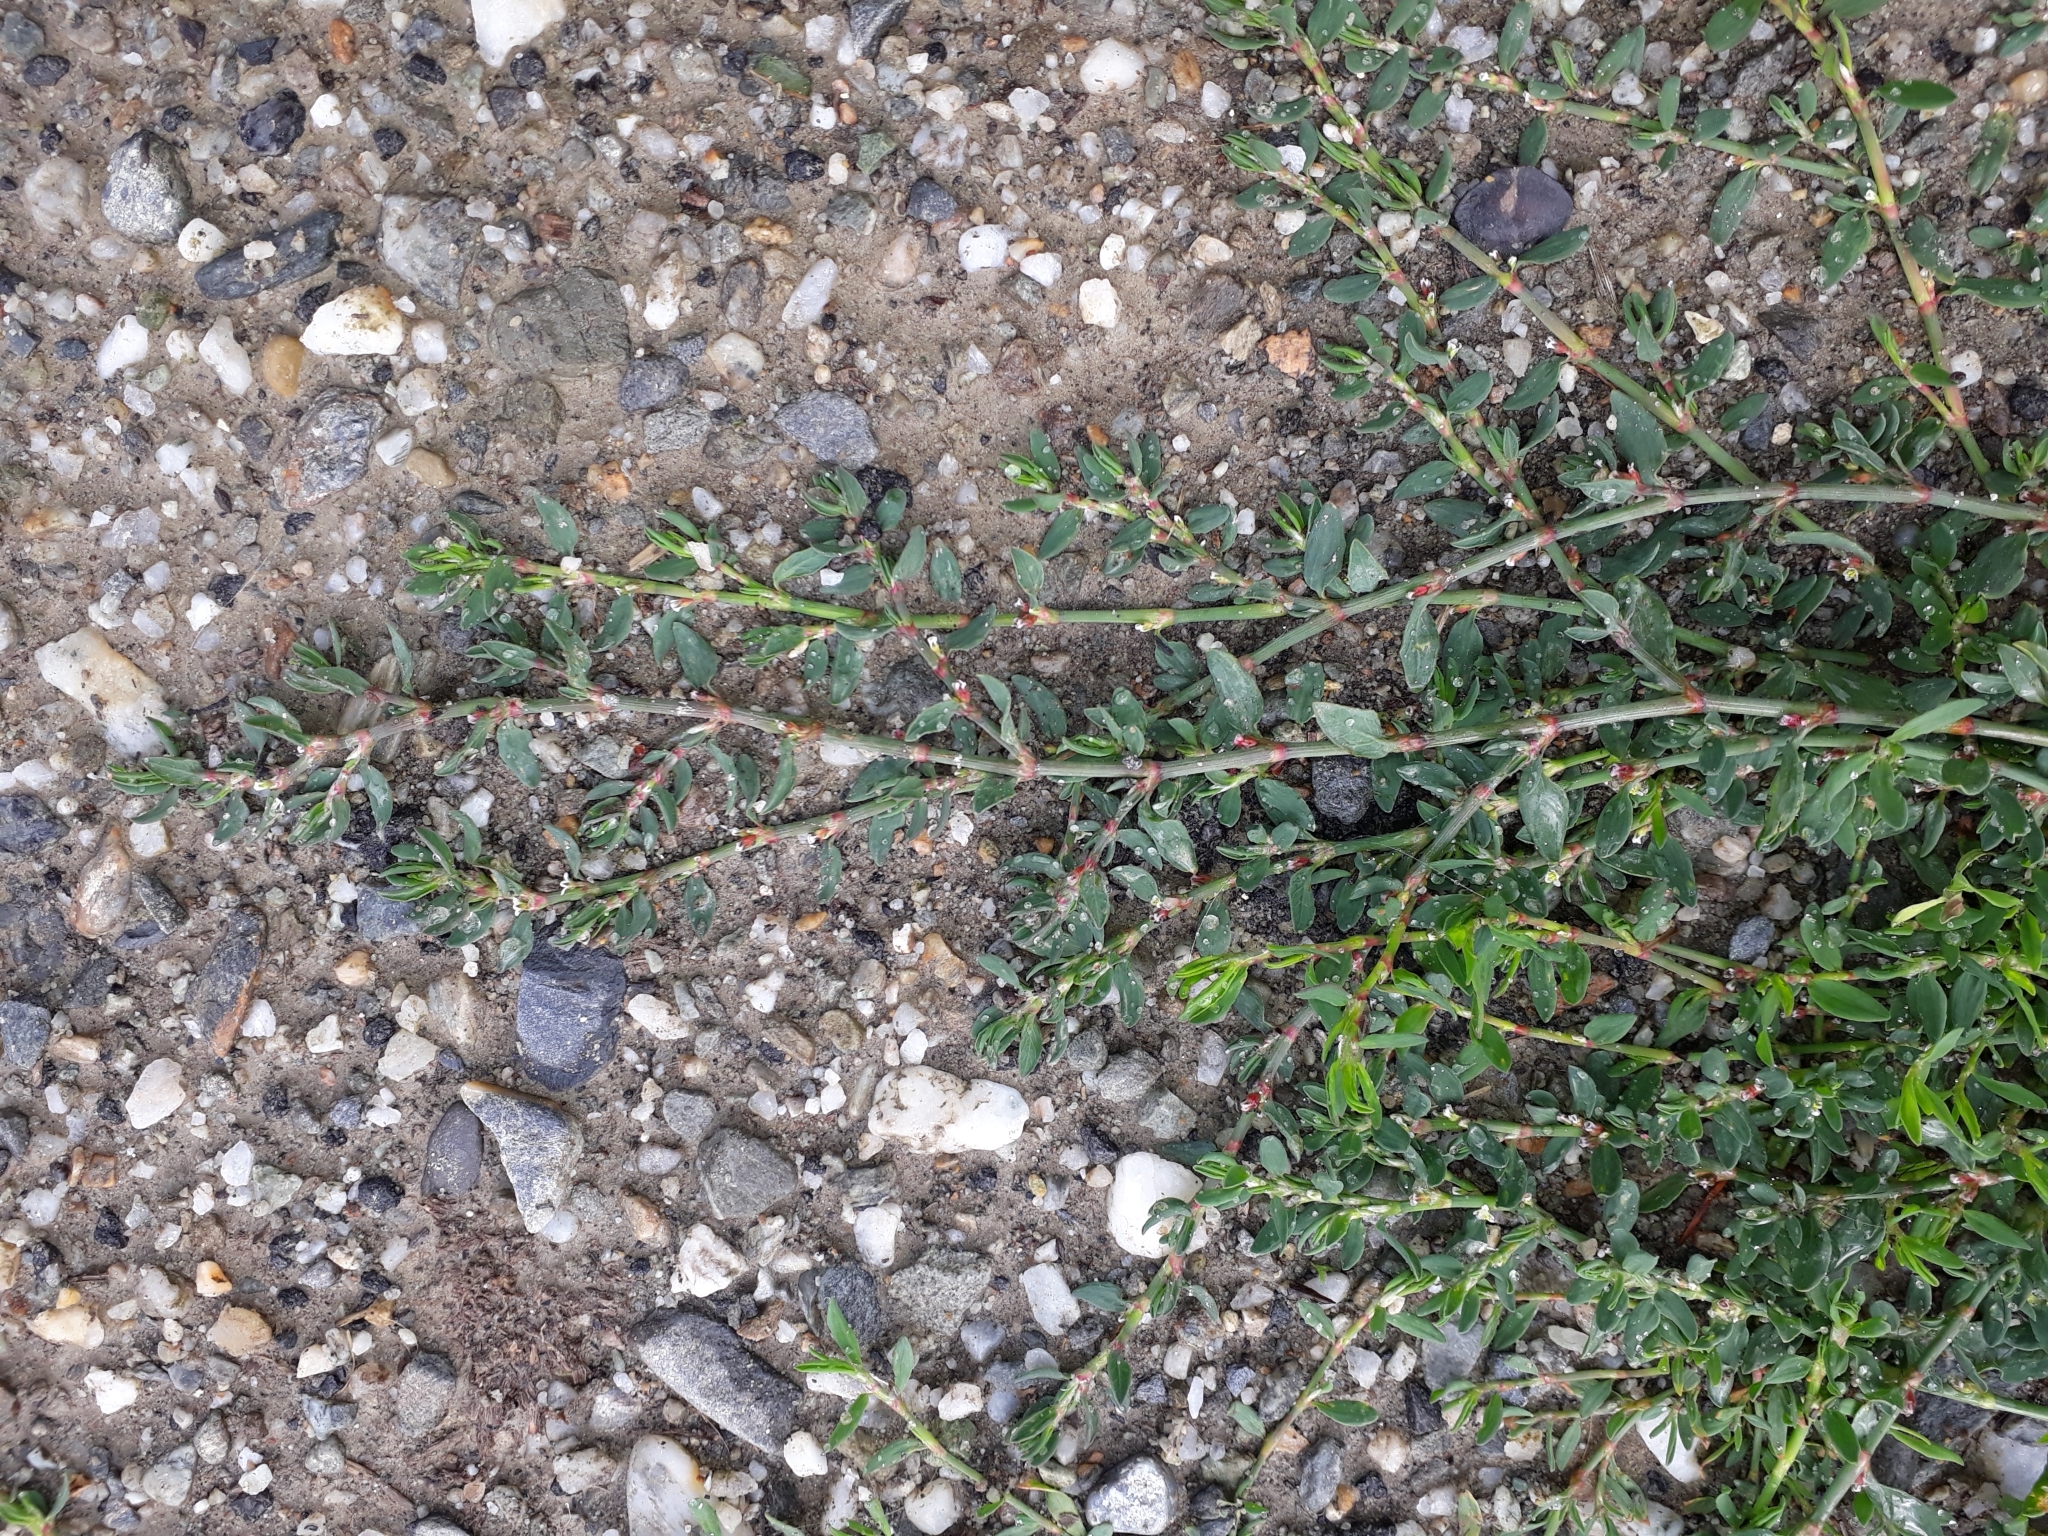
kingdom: Plantae
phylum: Tracheophyta
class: Magnoliopsida
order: Caryophyllales
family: Polygonaceae
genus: Polygonum
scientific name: Polygonum aviculare
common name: Prostrate knotweed
